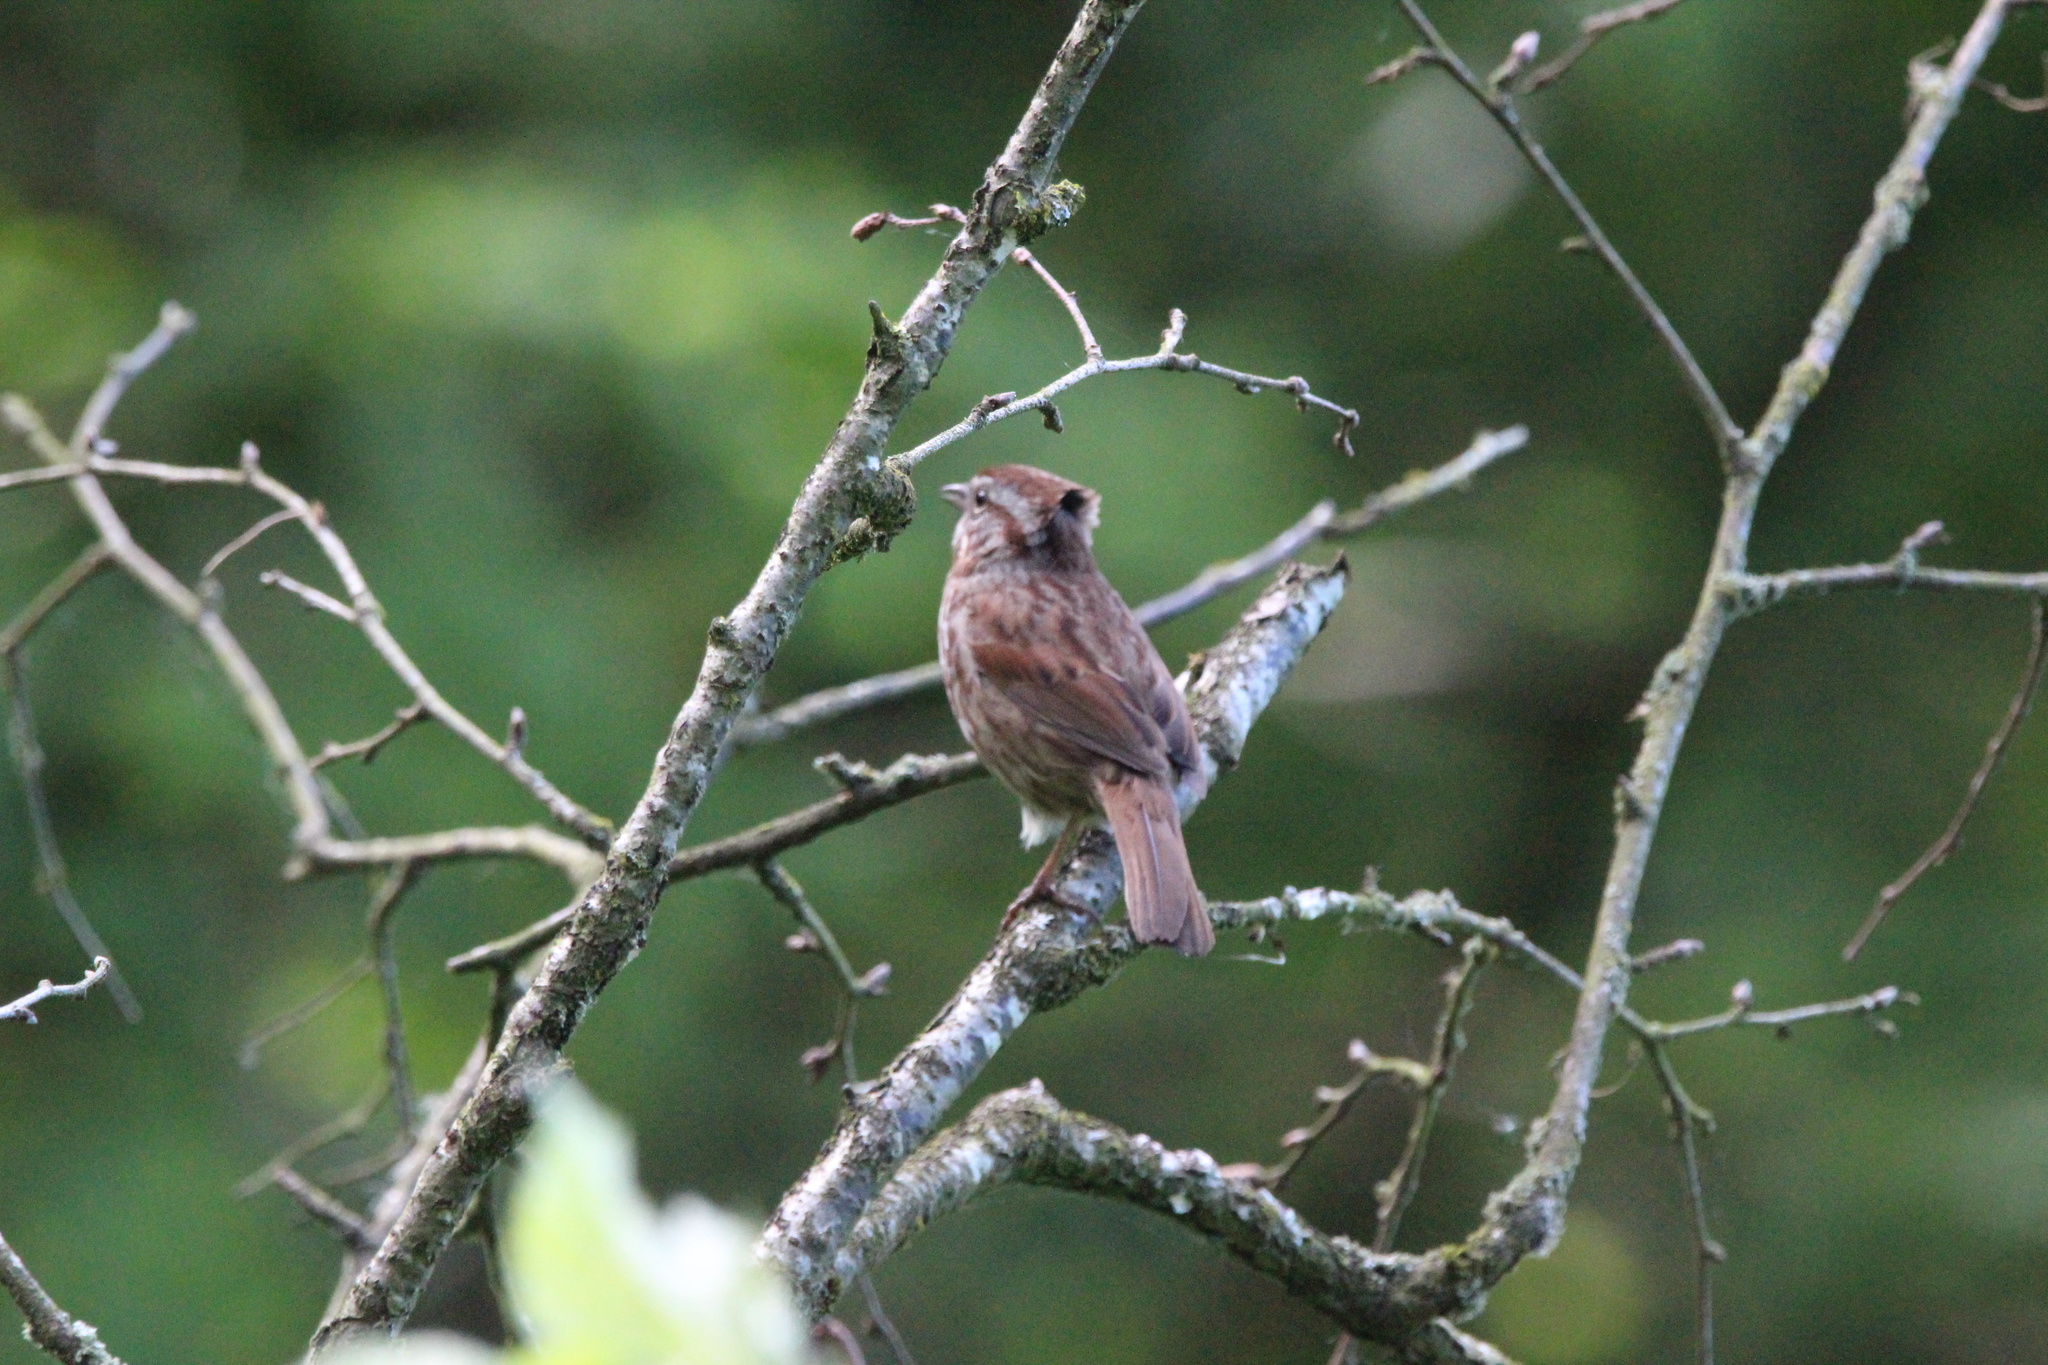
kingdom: Animalia
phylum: Chordata
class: Aves
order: Passeriformes
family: Passerellidae
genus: Melospiza
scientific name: Melospiza melodia
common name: Song sparrow
